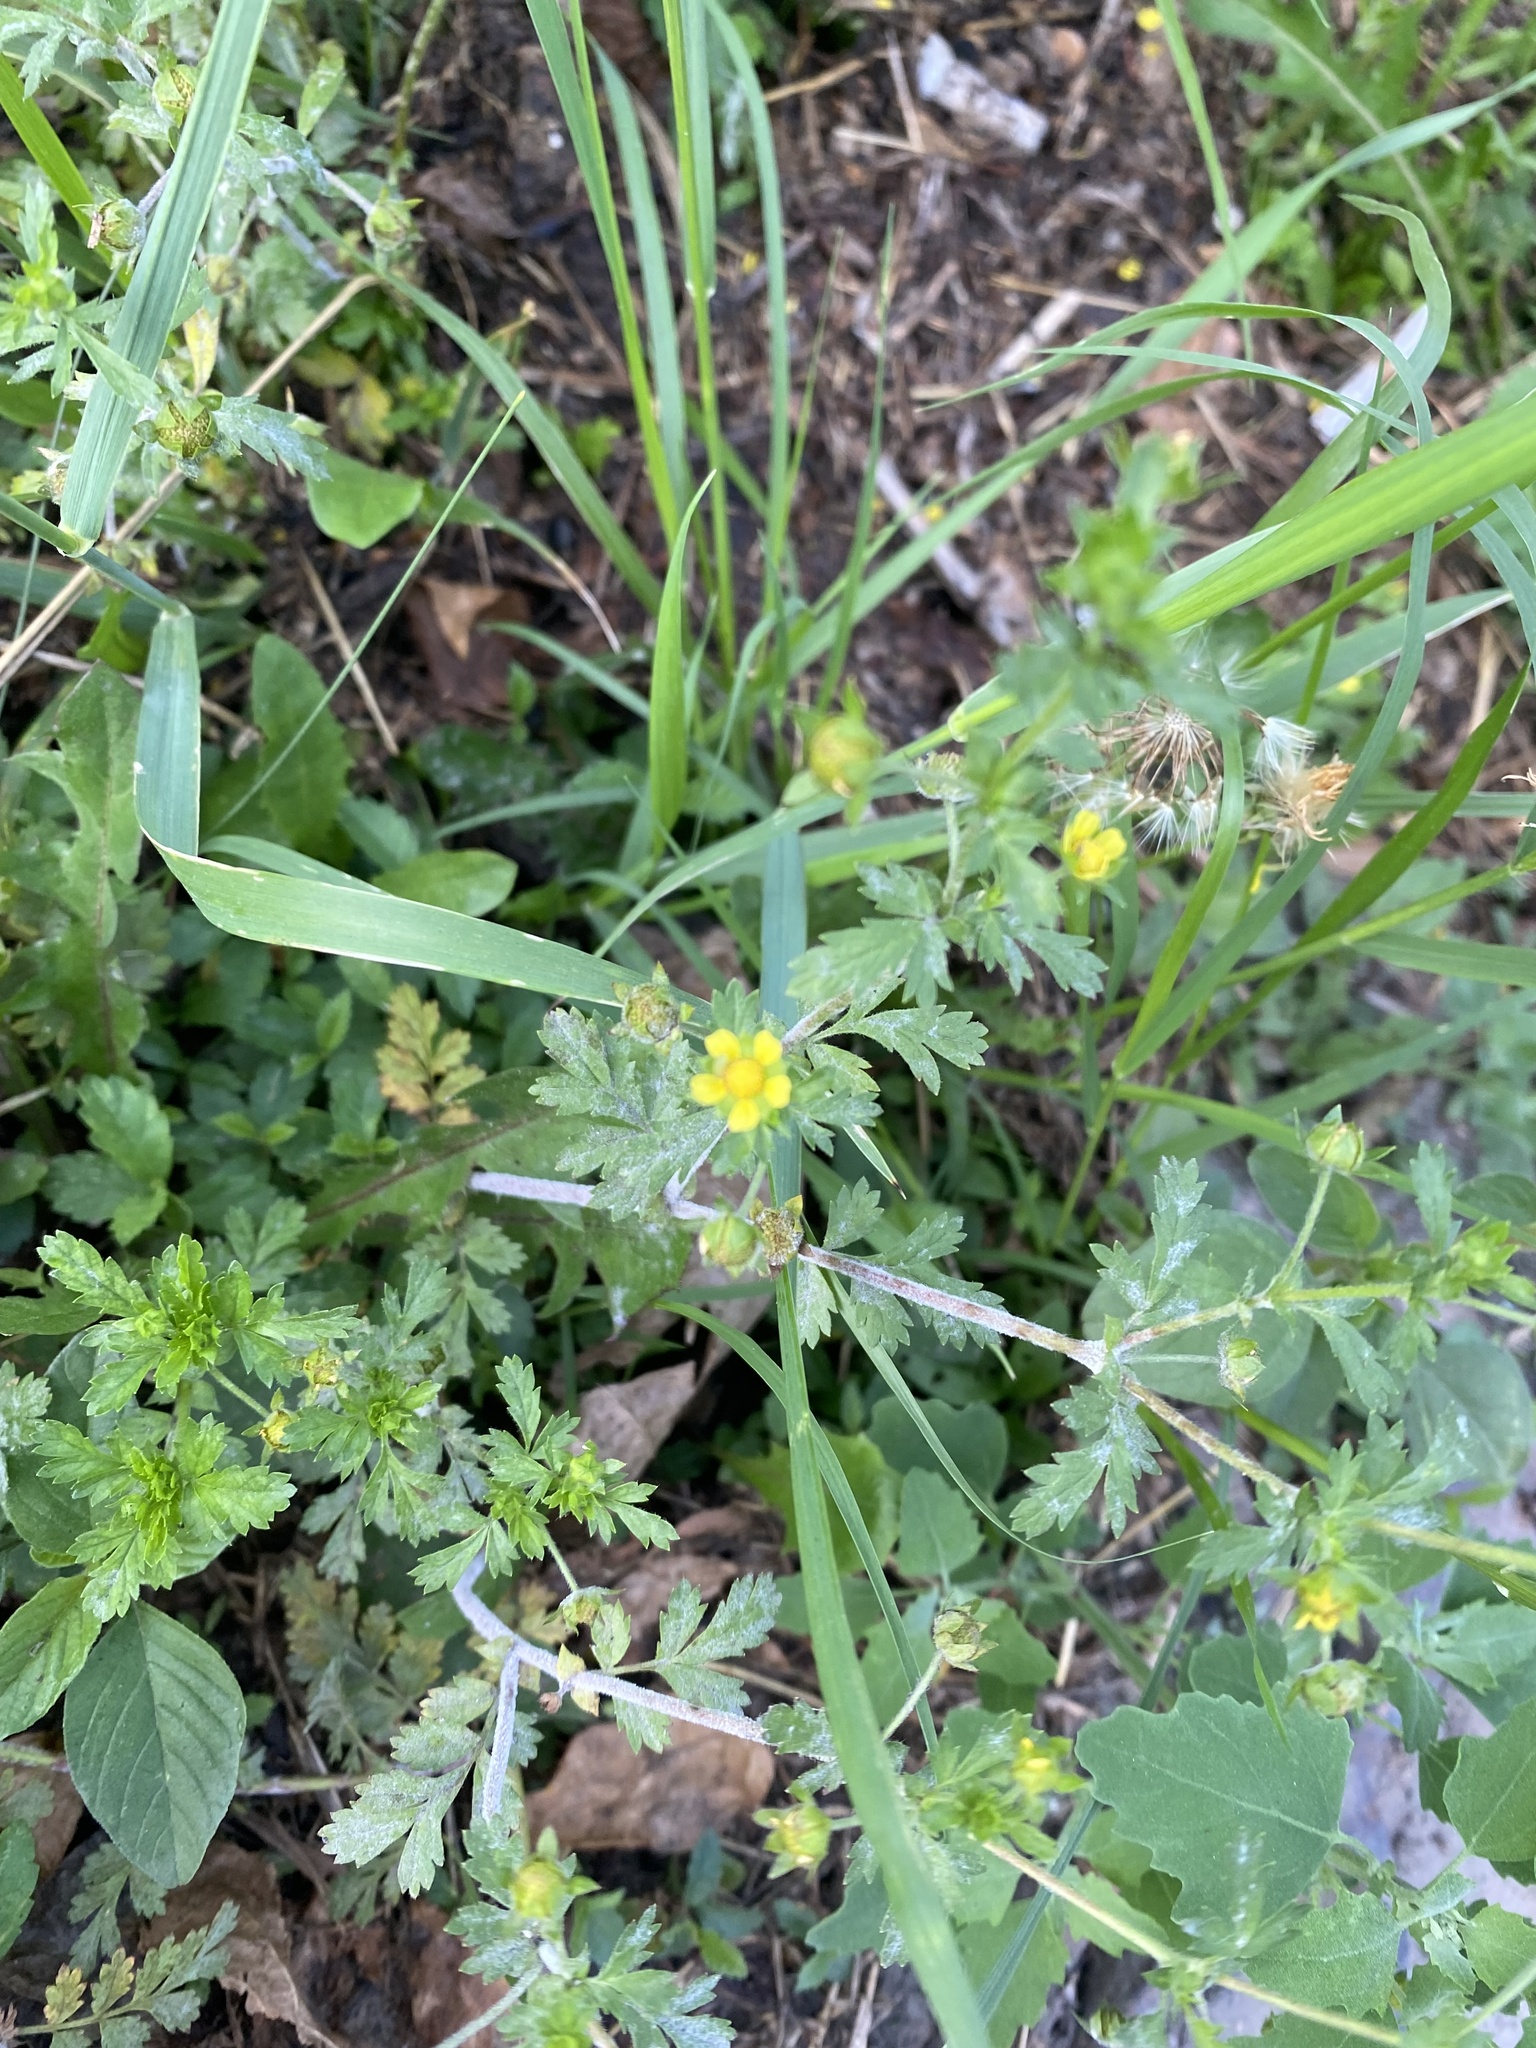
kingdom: Plantae
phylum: Tracheophyta
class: Magnoliopsida
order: Rosales
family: Rosaceae
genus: Potentilla
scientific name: Potentilla supina
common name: Prostrate cinquefoil
